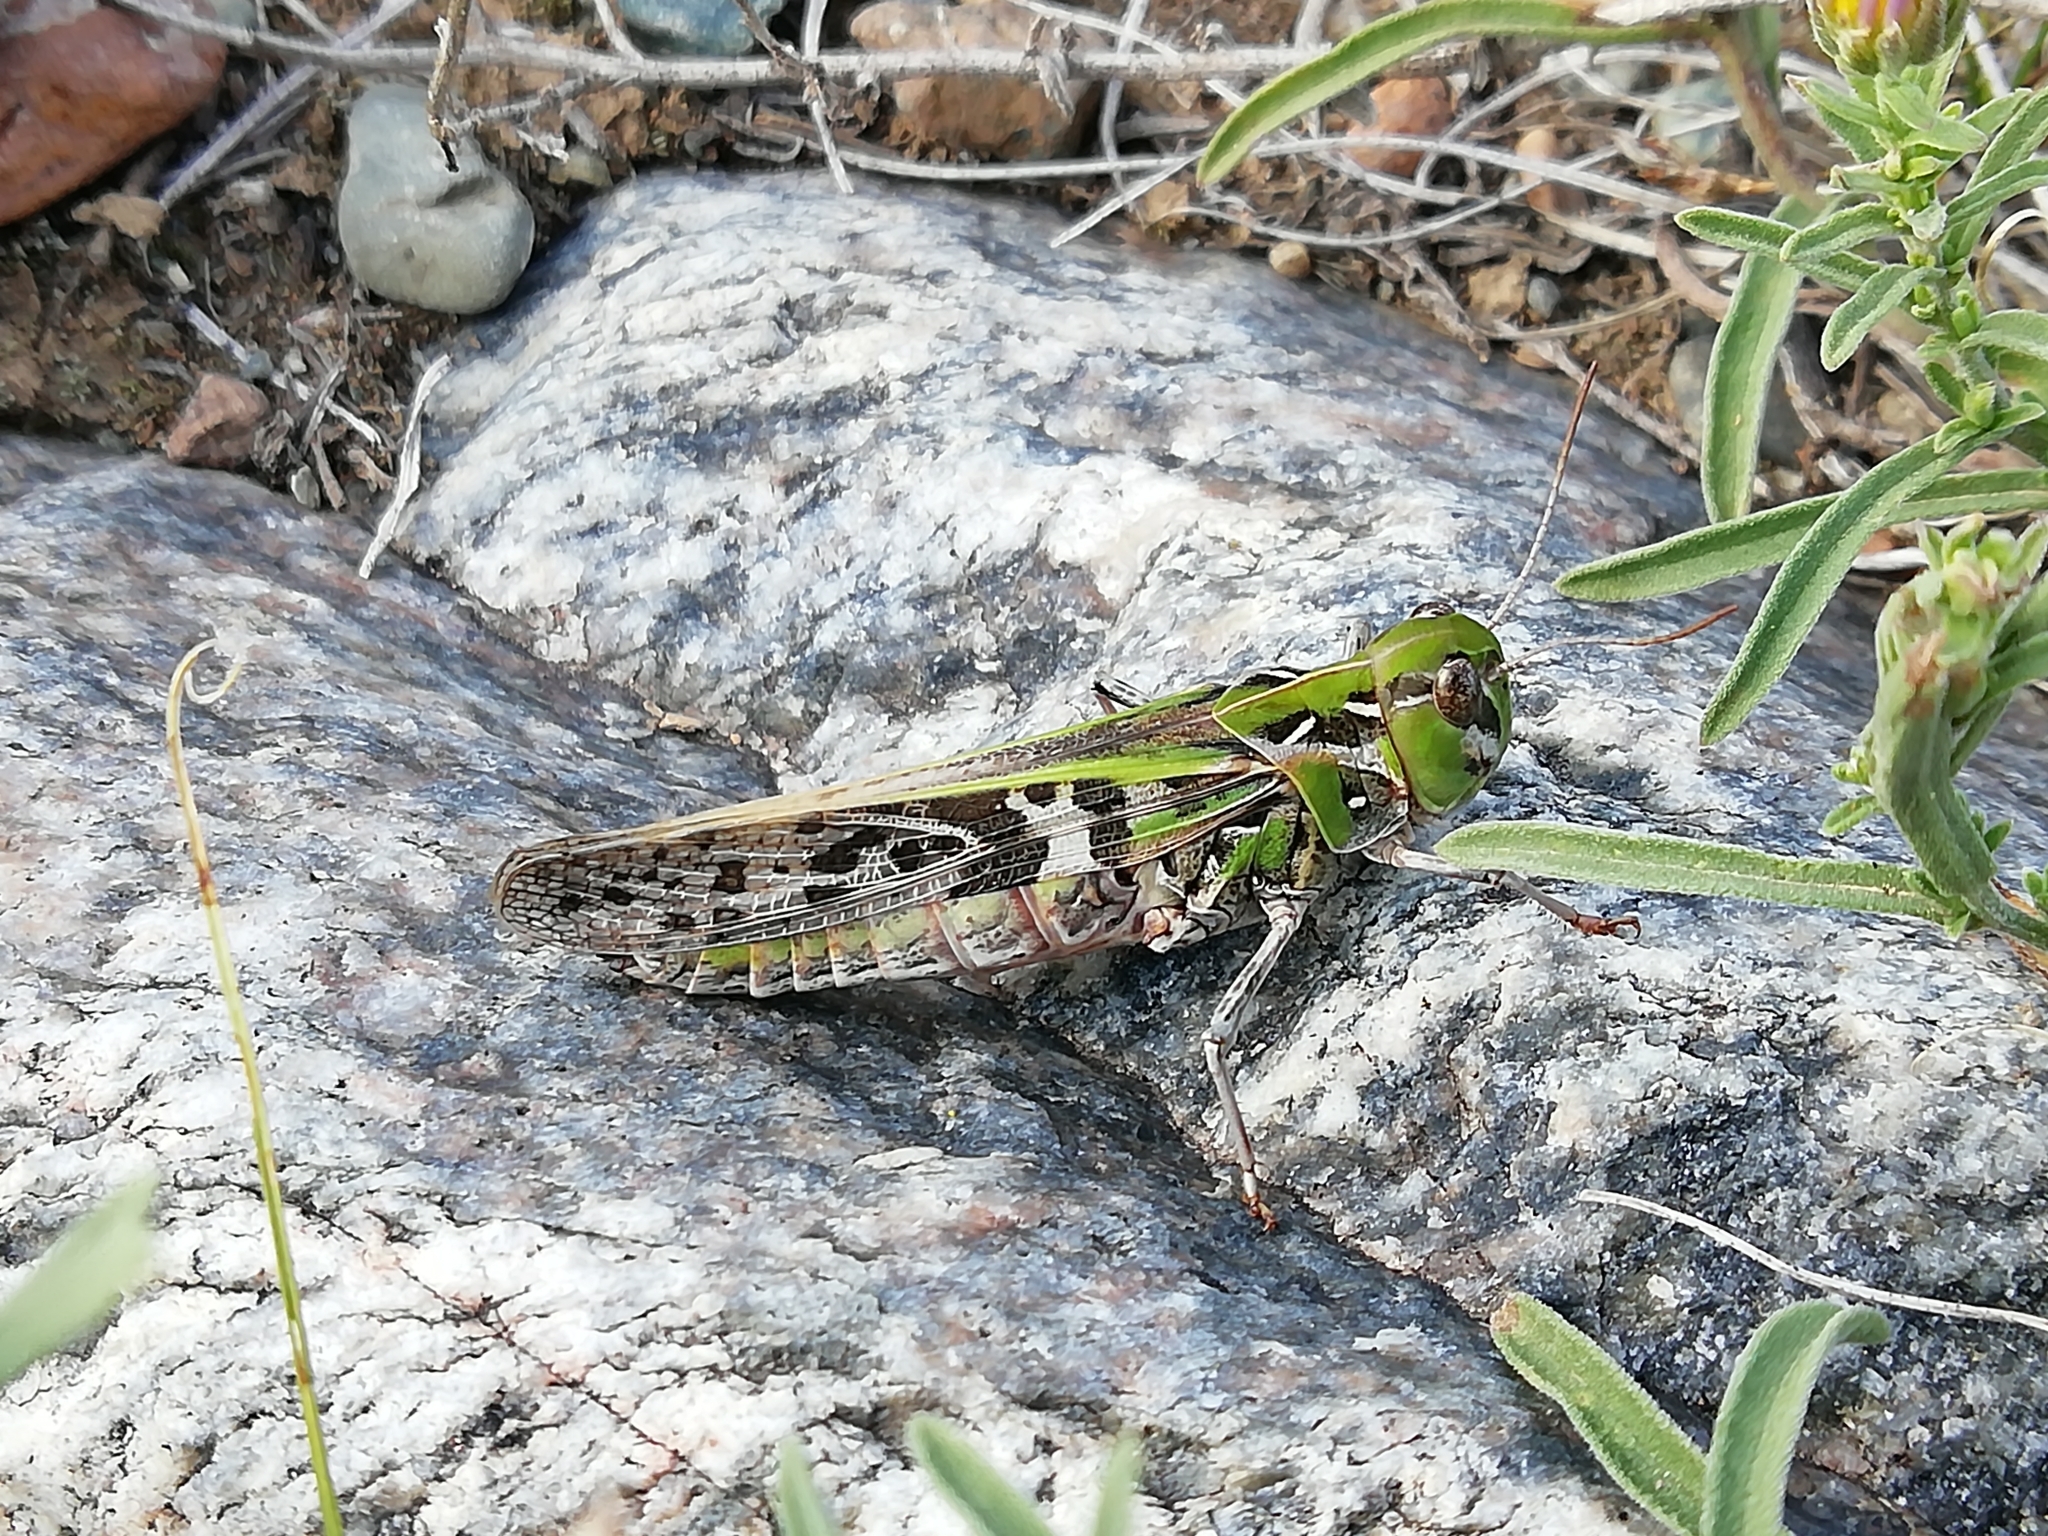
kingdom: Animalia
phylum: Arthropoda
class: Insecta
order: Orthoptera
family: Acrididae
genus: Oedaleus
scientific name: Oedaleus decorus
